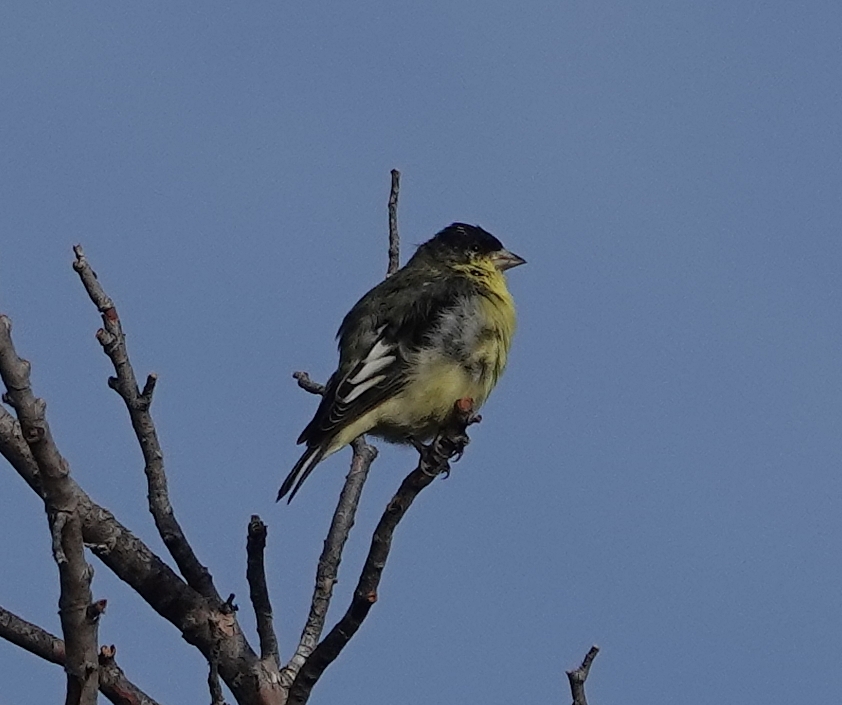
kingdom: Animalia
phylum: Chordata
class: Aves
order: Passeriformes
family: Fringillidae
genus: Spinus
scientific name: Spinus psaltria
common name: Lesser goldfinch
